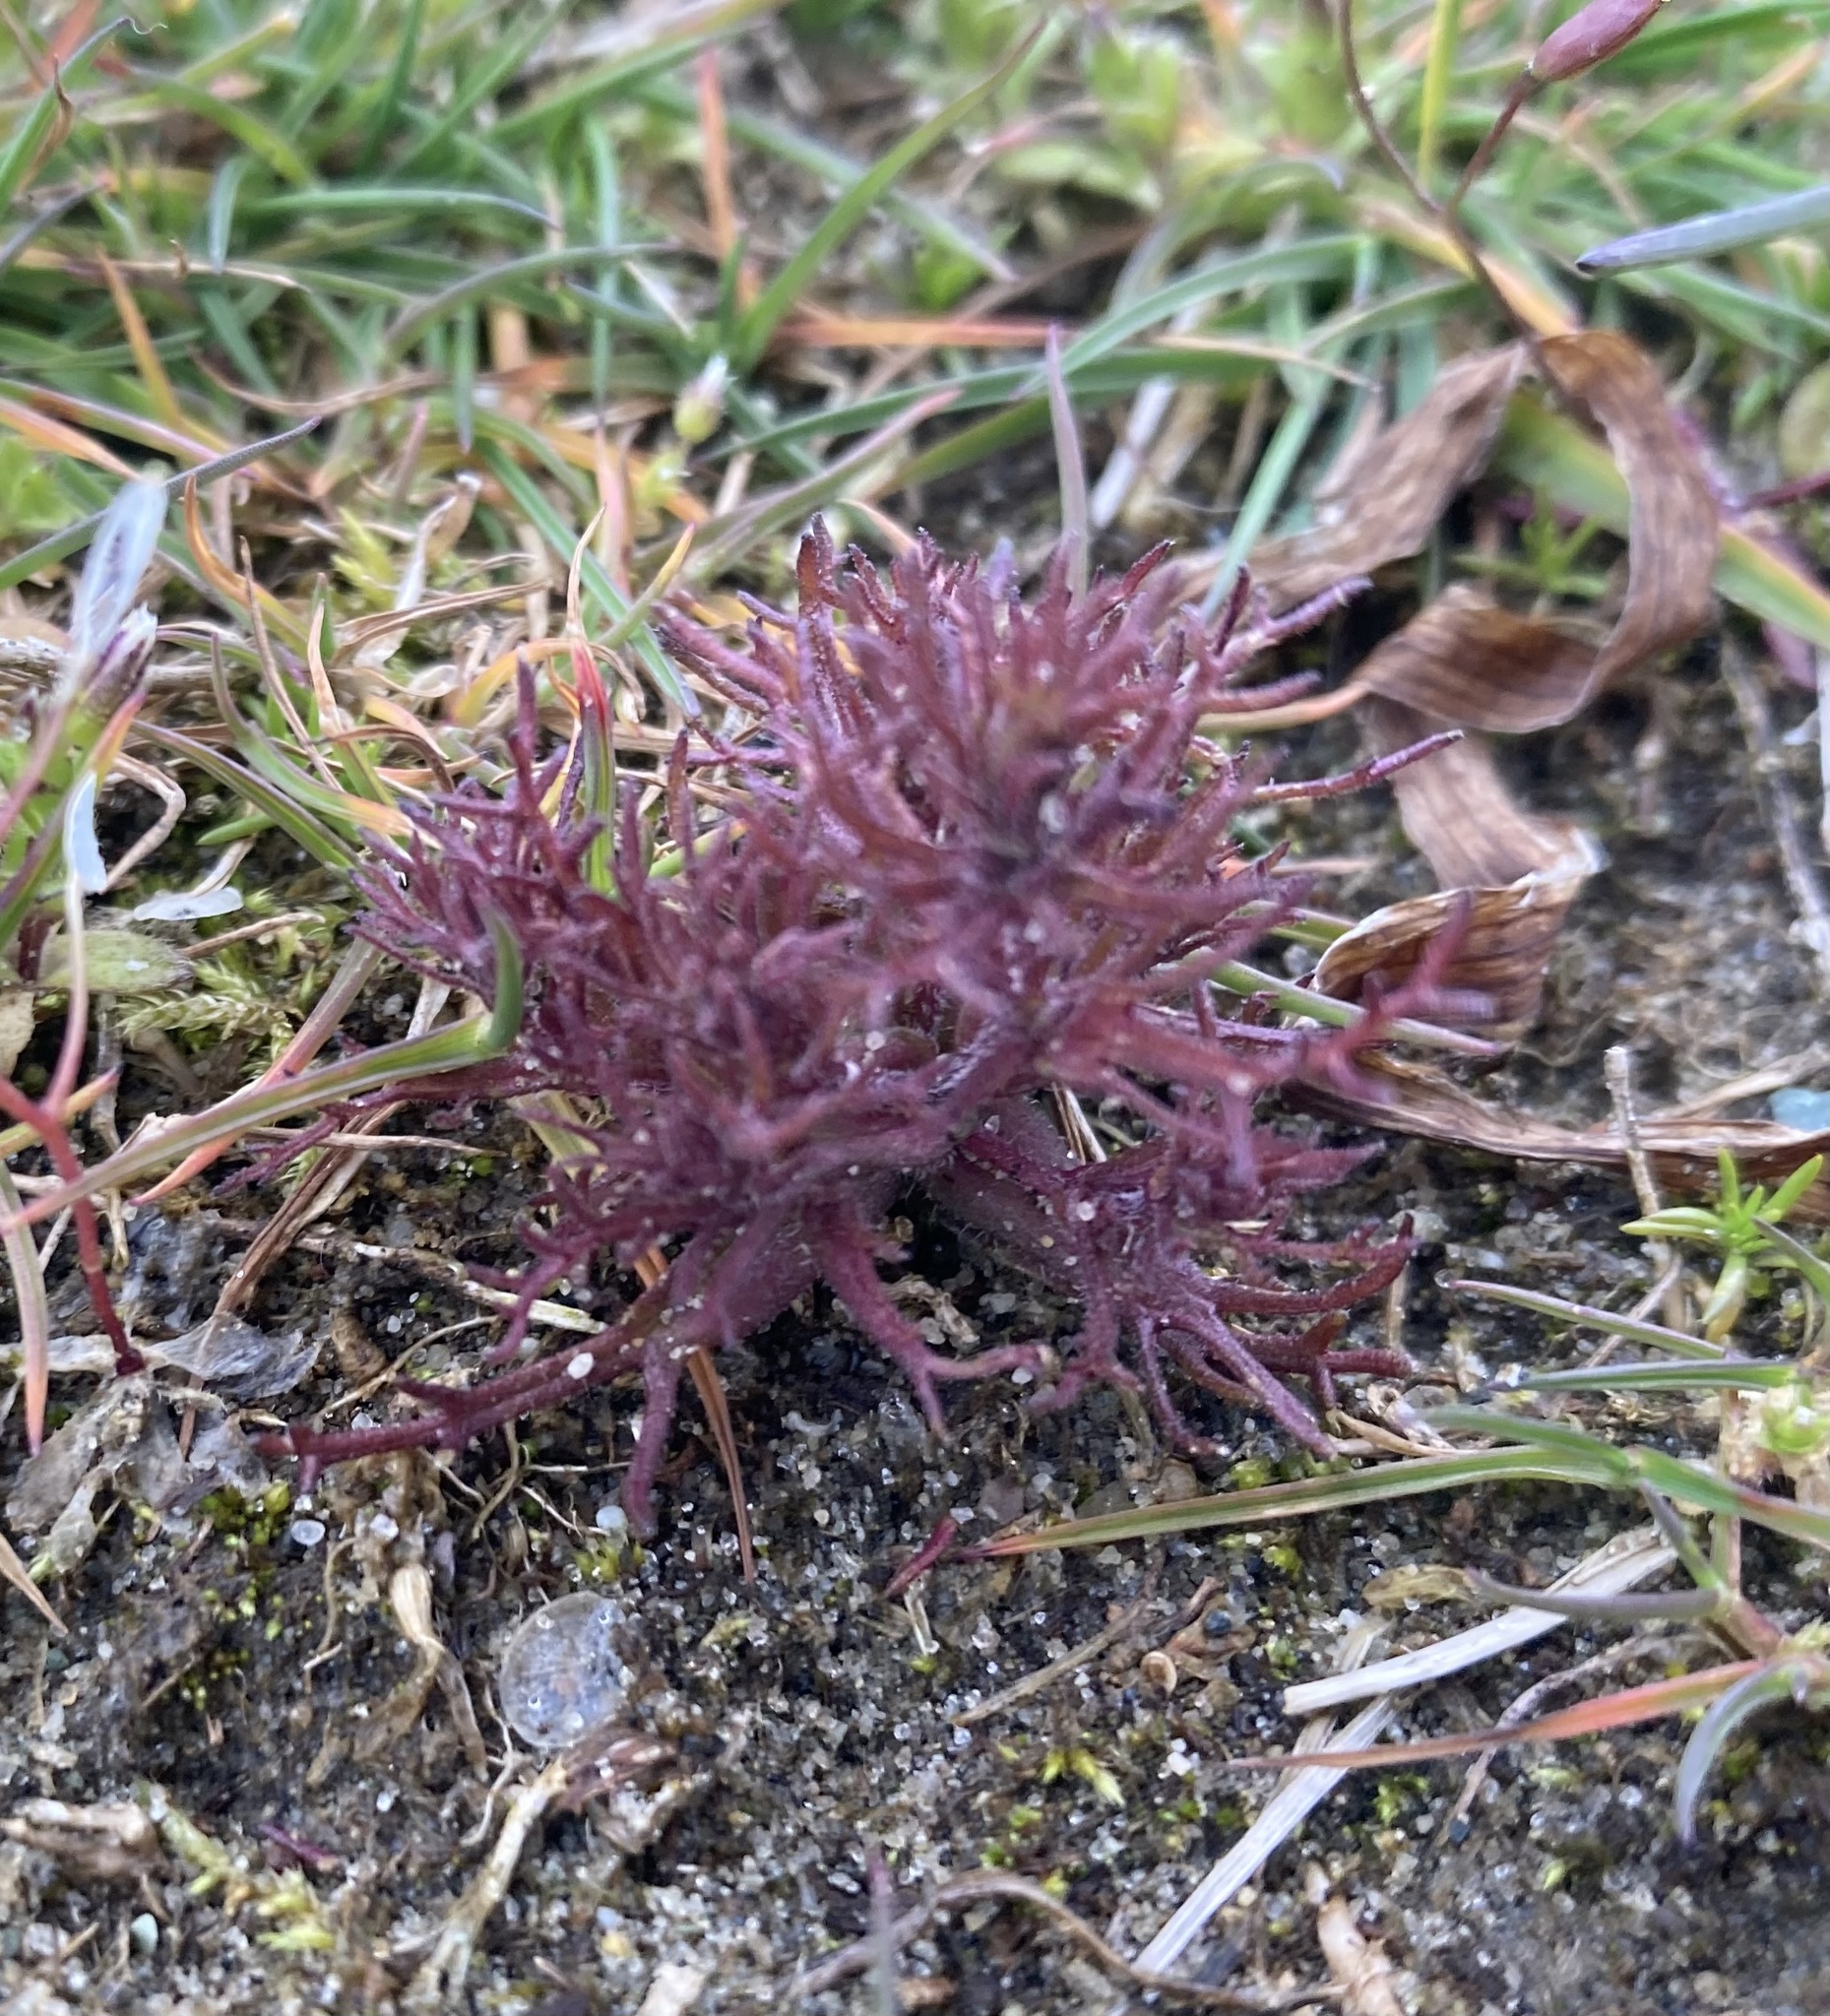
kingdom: Plantae
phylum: Tracheophyta
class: Magnoliopsida
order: Lamiales
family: Orobanchaceae
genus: Triphysaria
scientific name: Triphysaria pusilla
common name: Dwarf false owl-clover
